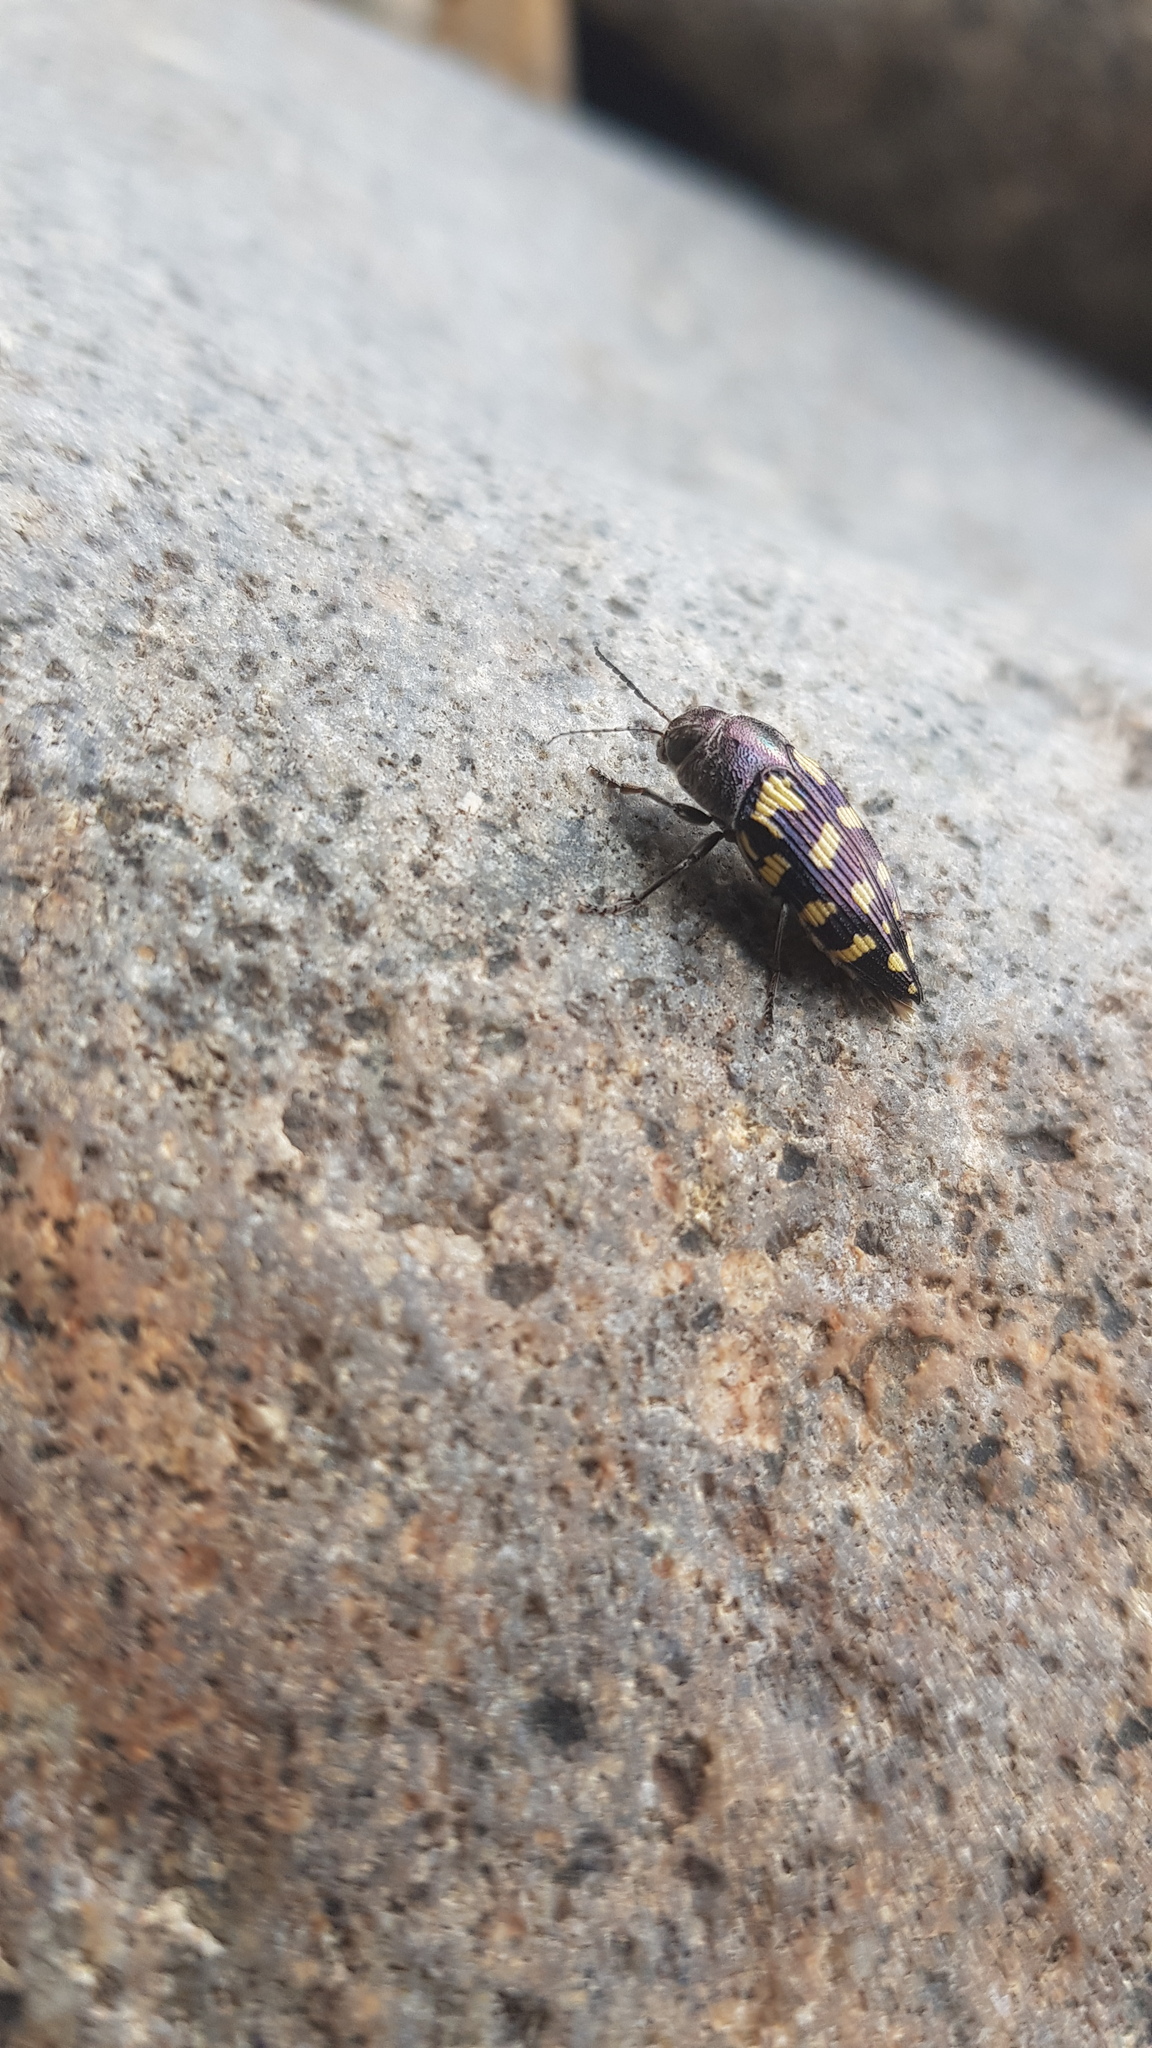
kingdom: Animalia
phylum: Arthropoda
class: Insecta
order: Coleoptera
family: Buprestidae
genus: Astraeus
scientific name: Astraeus crassus
